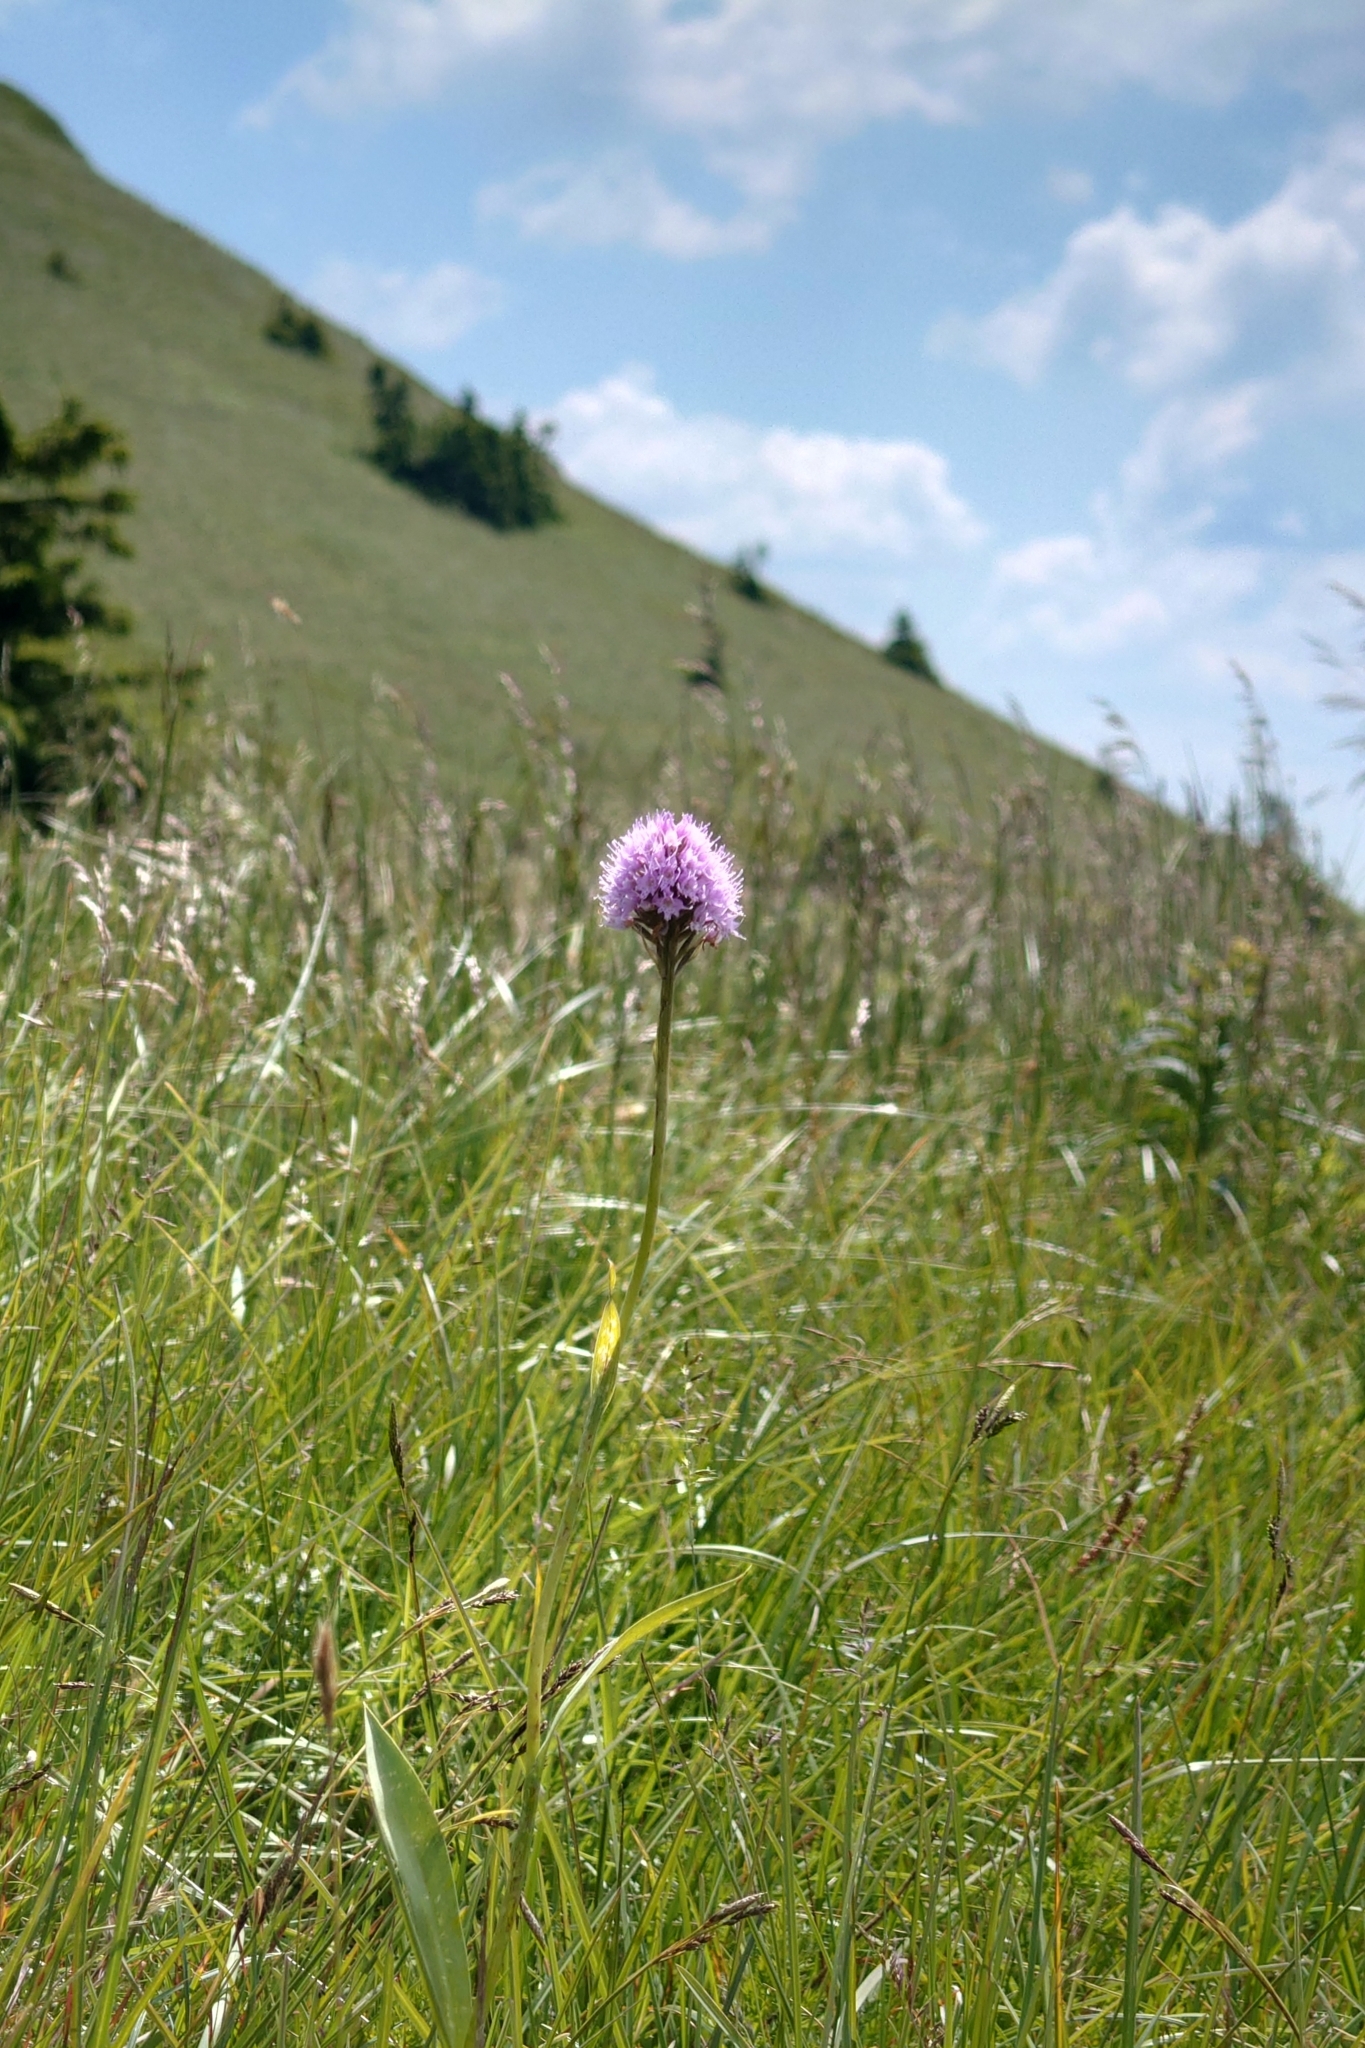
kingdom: Plantae
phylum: Tracheophyta
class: Liliopsida
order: Asparagales
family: Orchidaceae
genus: Traunsteinera
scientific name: Traunsteinera globosa
